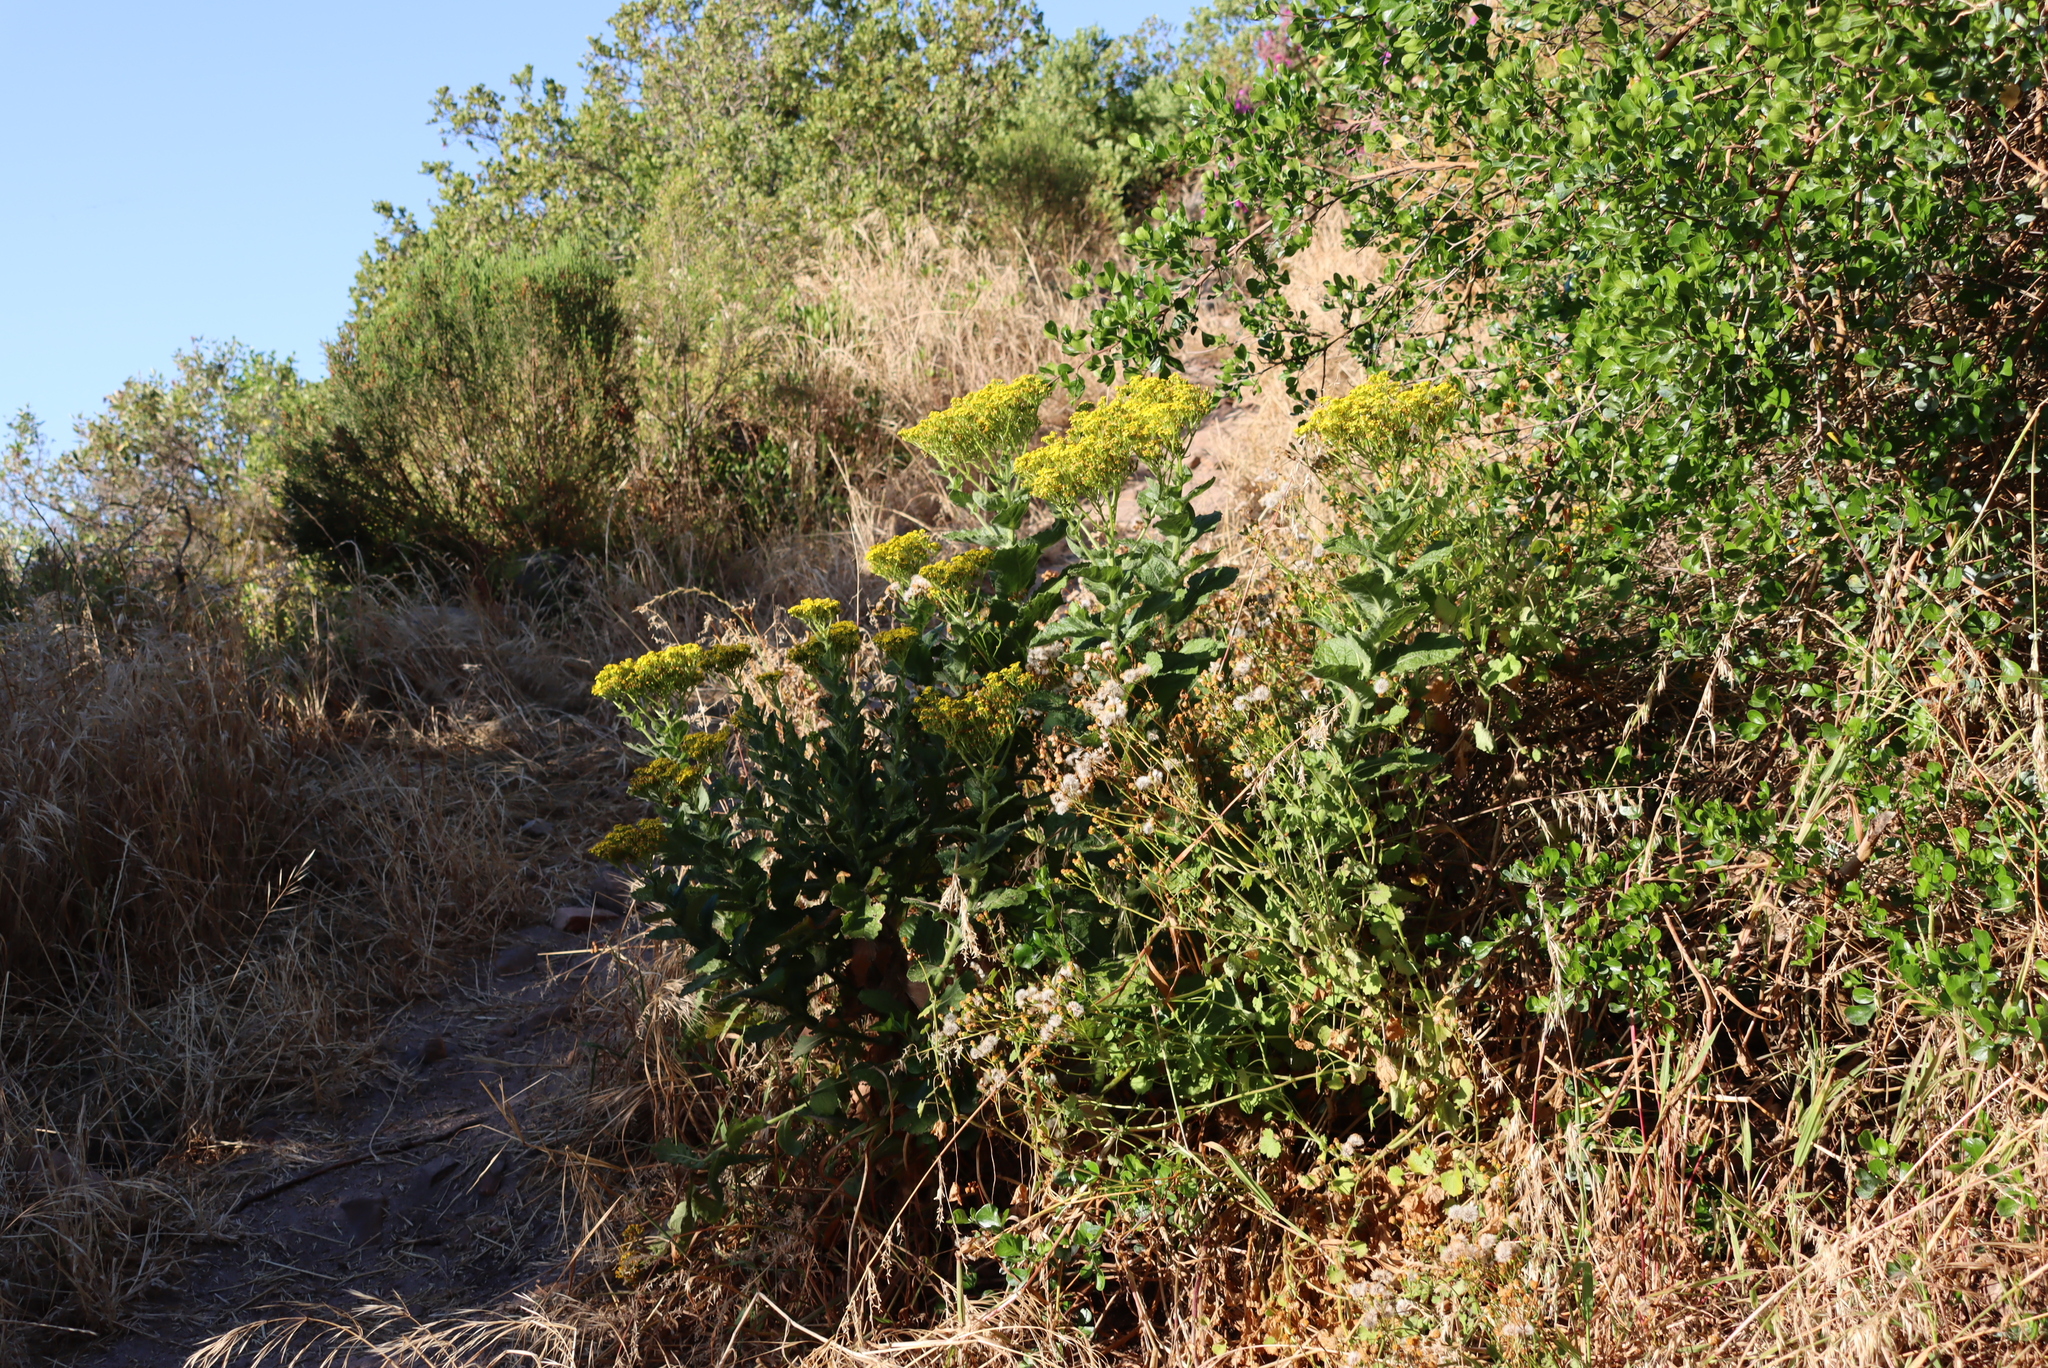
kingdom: Plantae
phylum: Tracheophyta
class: Magnoliopsida
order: Asterales
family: Asteraceae
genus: Senecio
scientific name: Senecio rigidus
